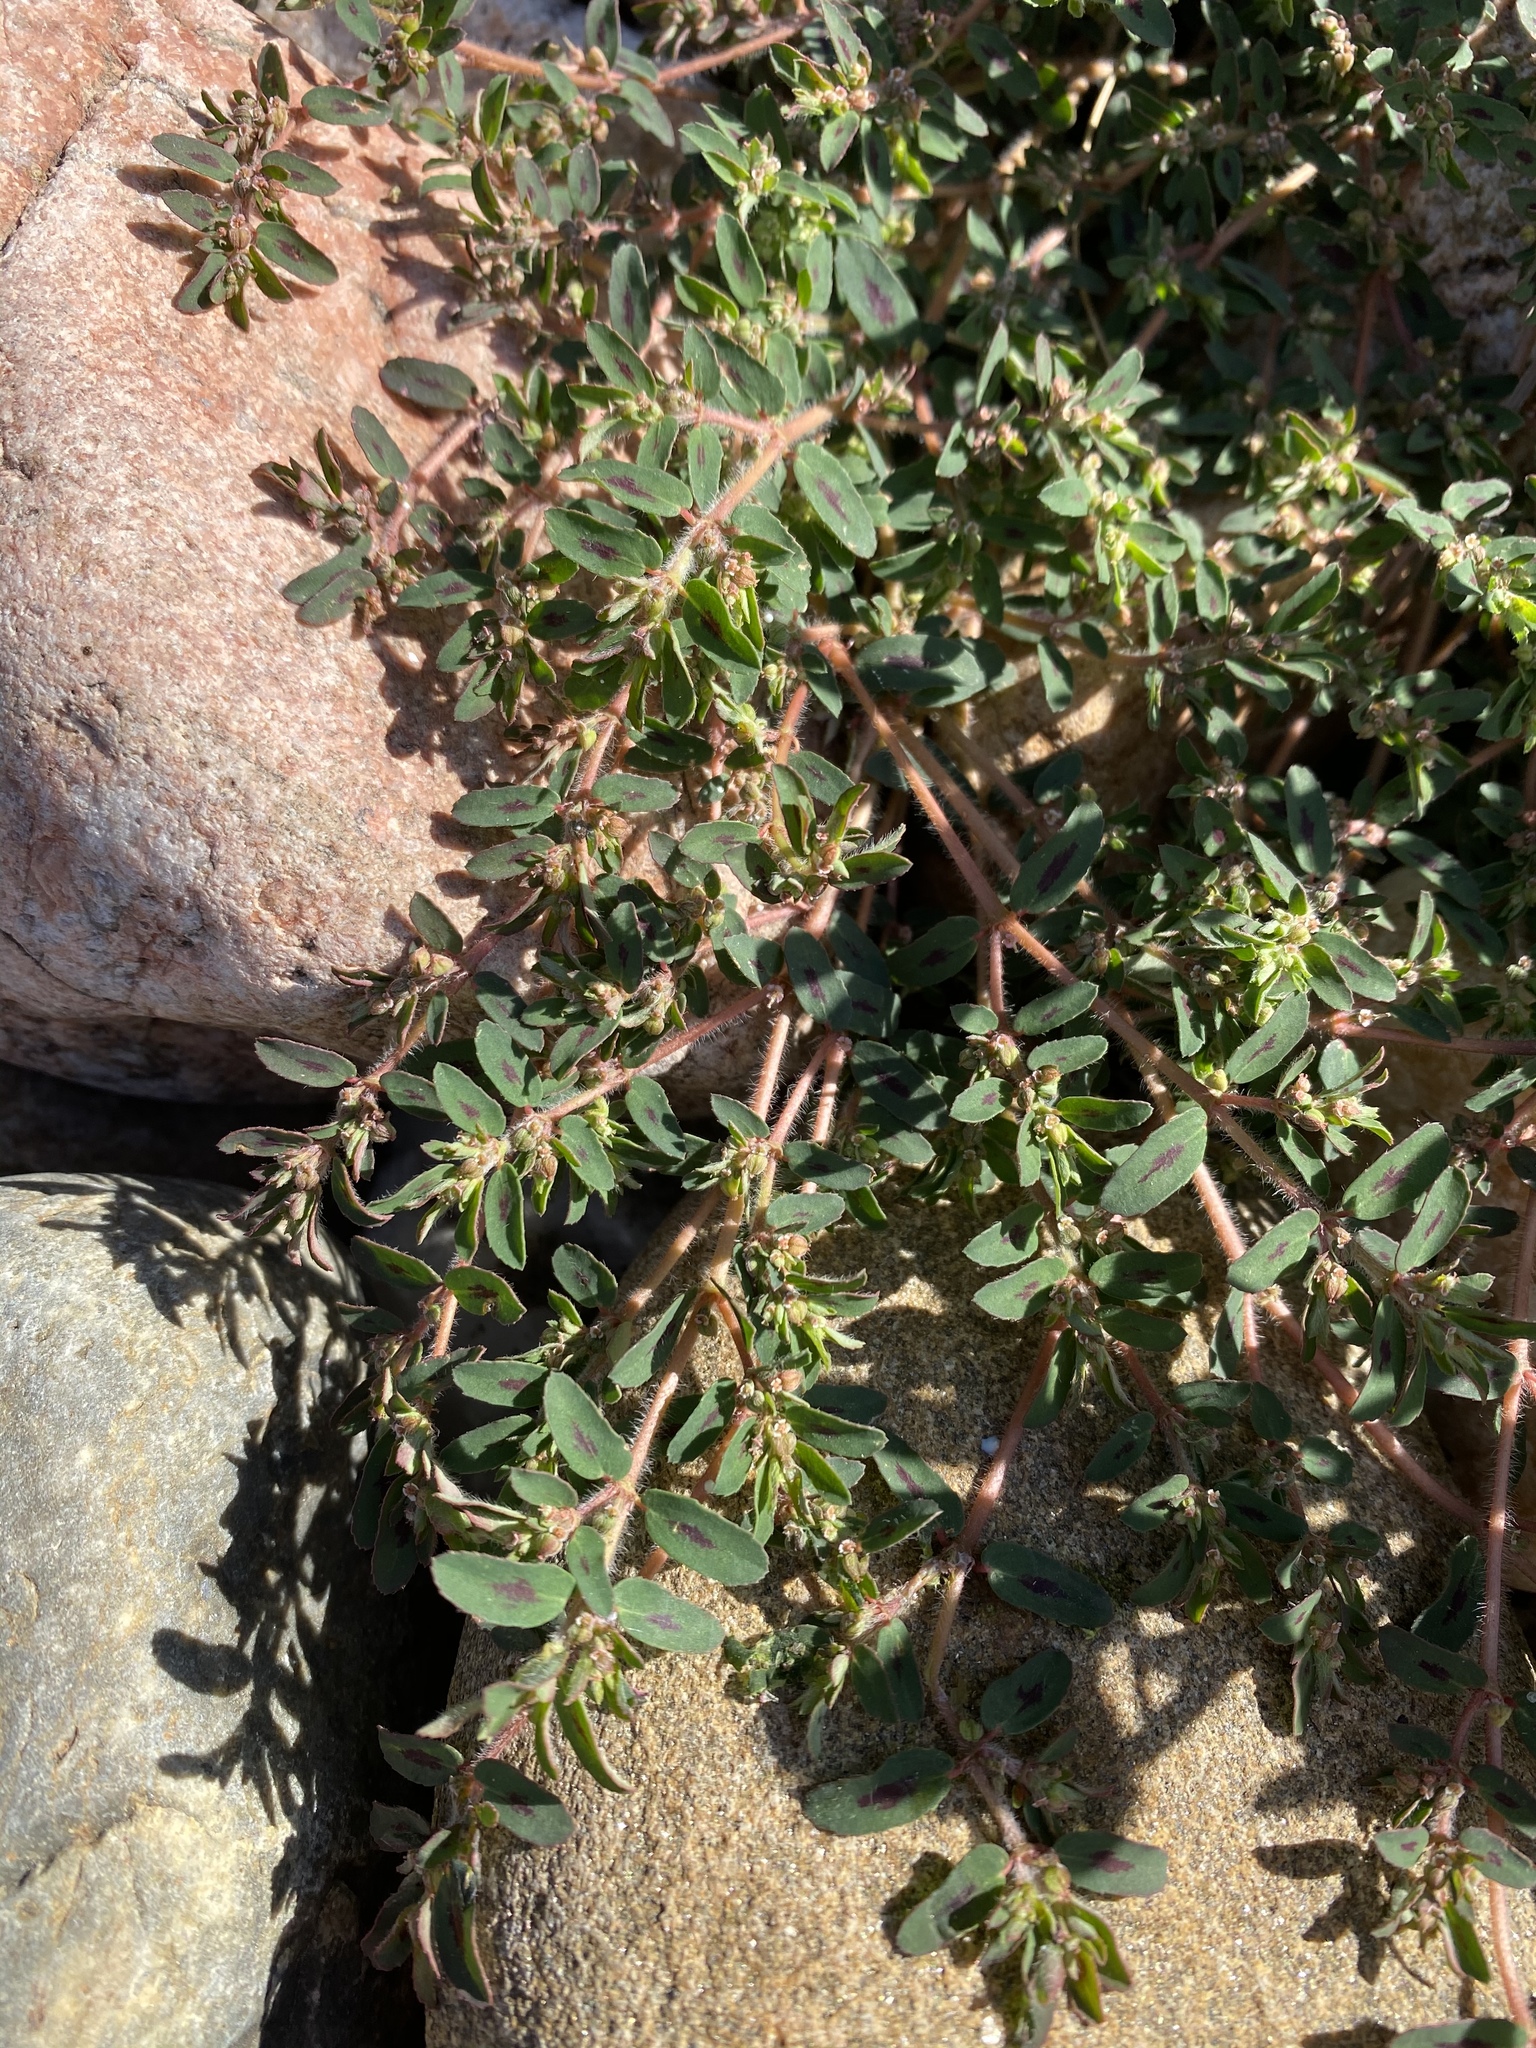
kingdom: Plantae
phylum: Tracheophyta
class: Magnoliopsida
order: Malpighiales
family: Euphorbiaceae
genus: Euphorbia
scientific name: Euphorbia maculata
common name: Spotted spurge
